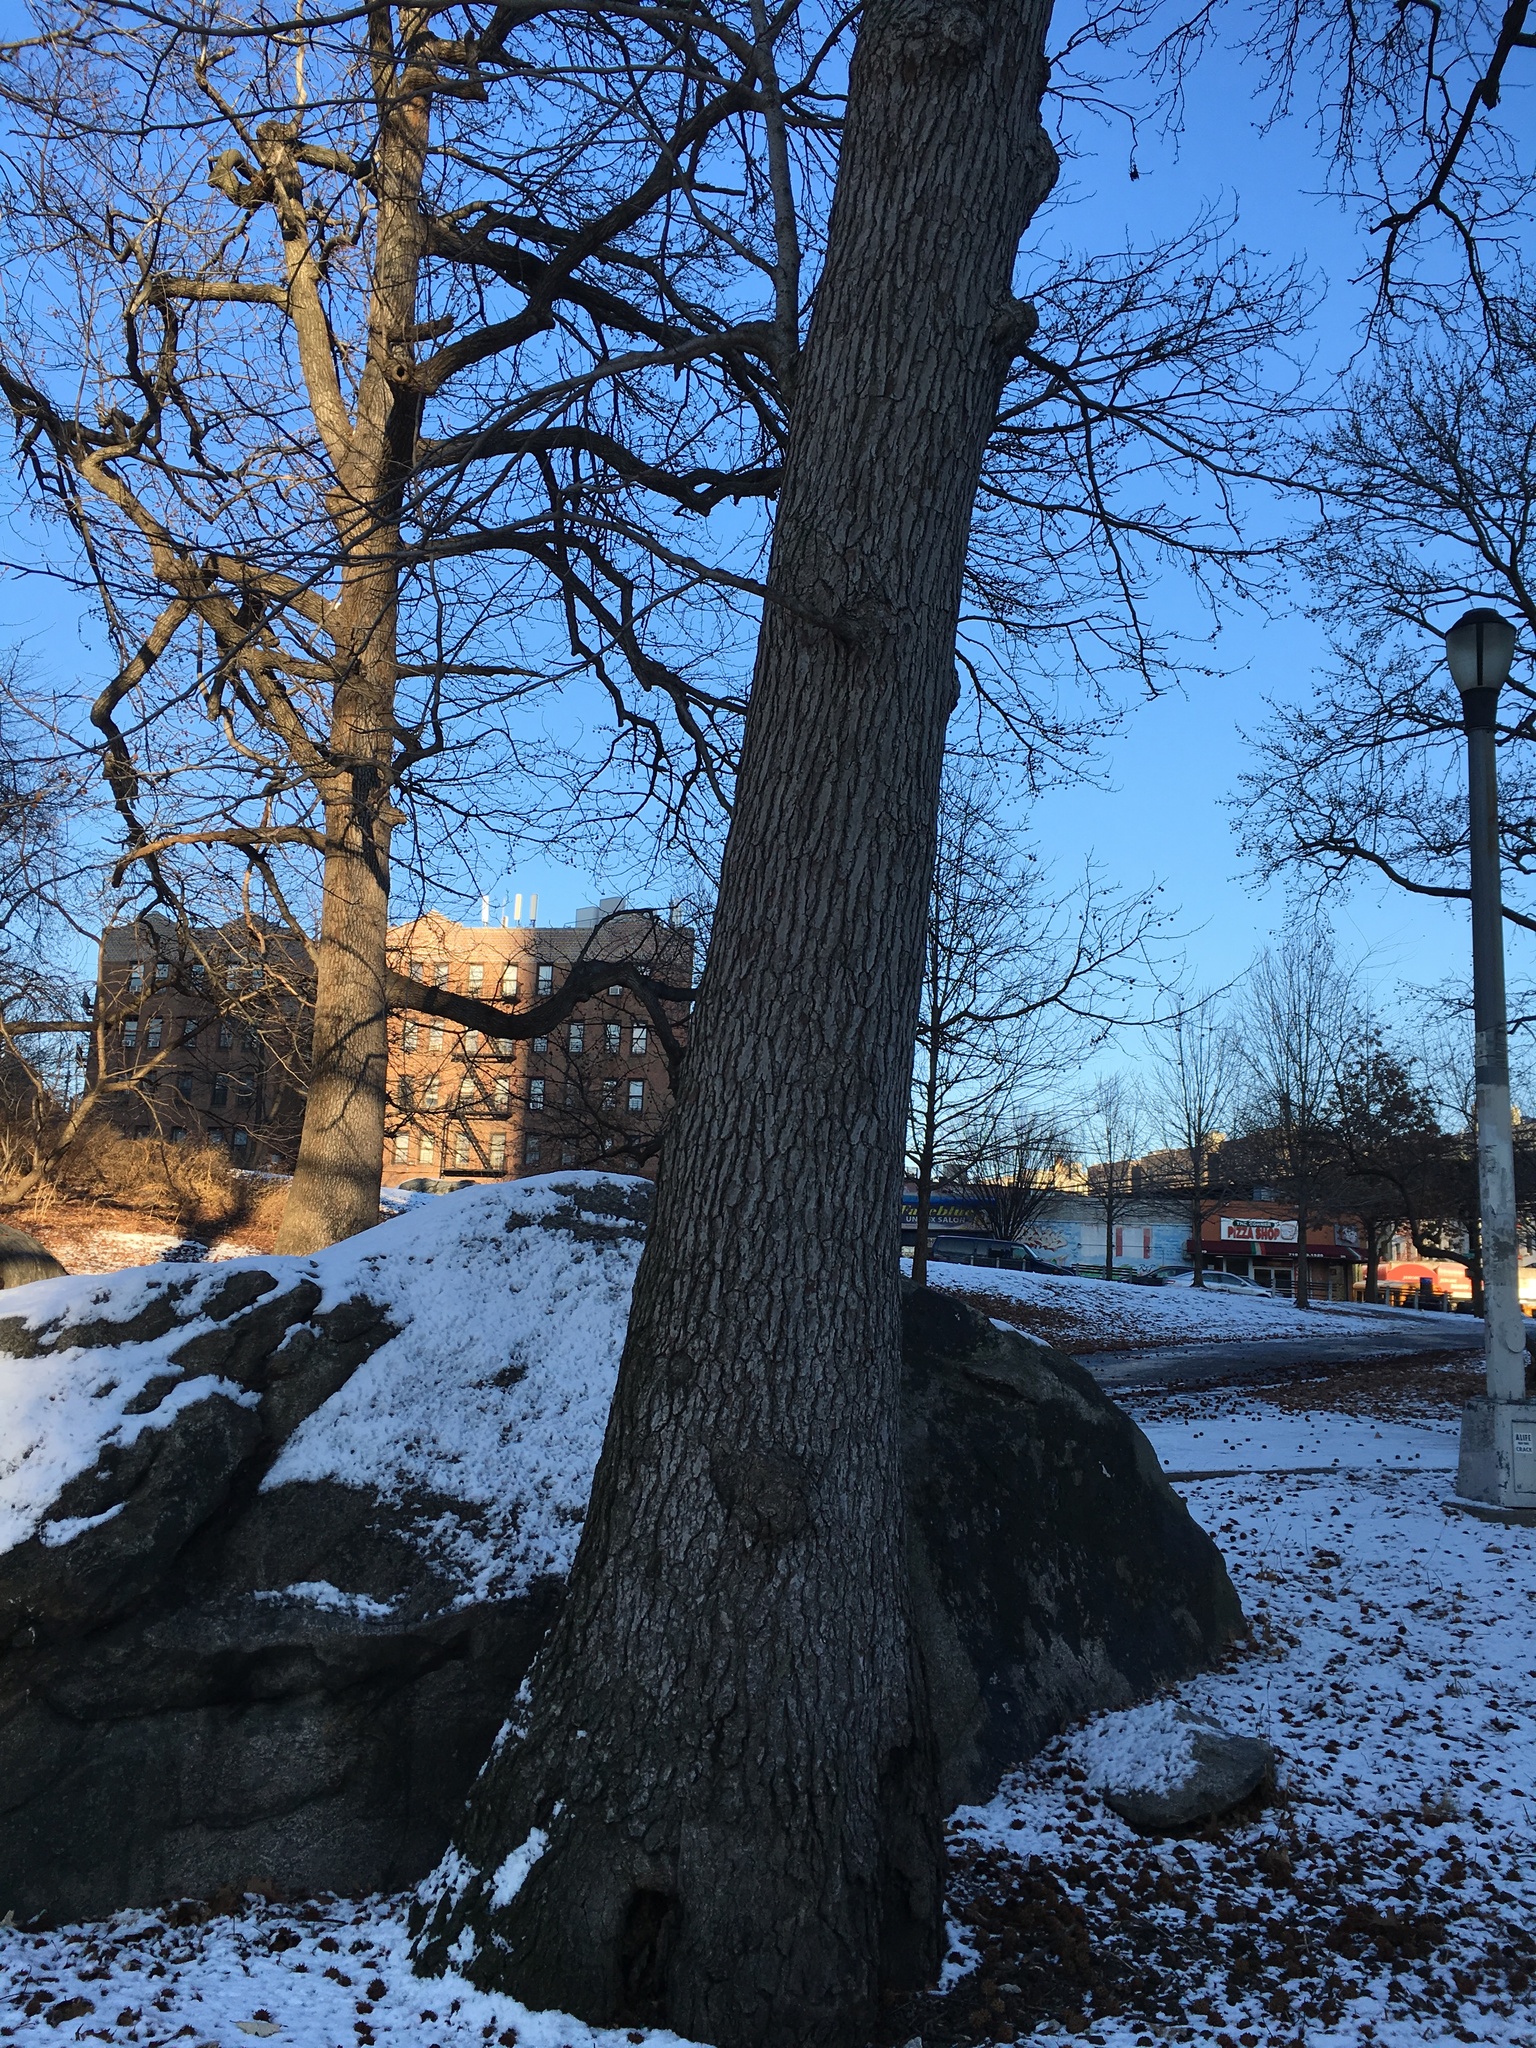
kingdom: Plantae
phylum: Tracheophyta
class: Magnoliopsida
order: Saxifragales
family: Altingiaceae
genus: Liquidambar
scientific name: Liquidambar styraciflua
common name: Sweet gum
